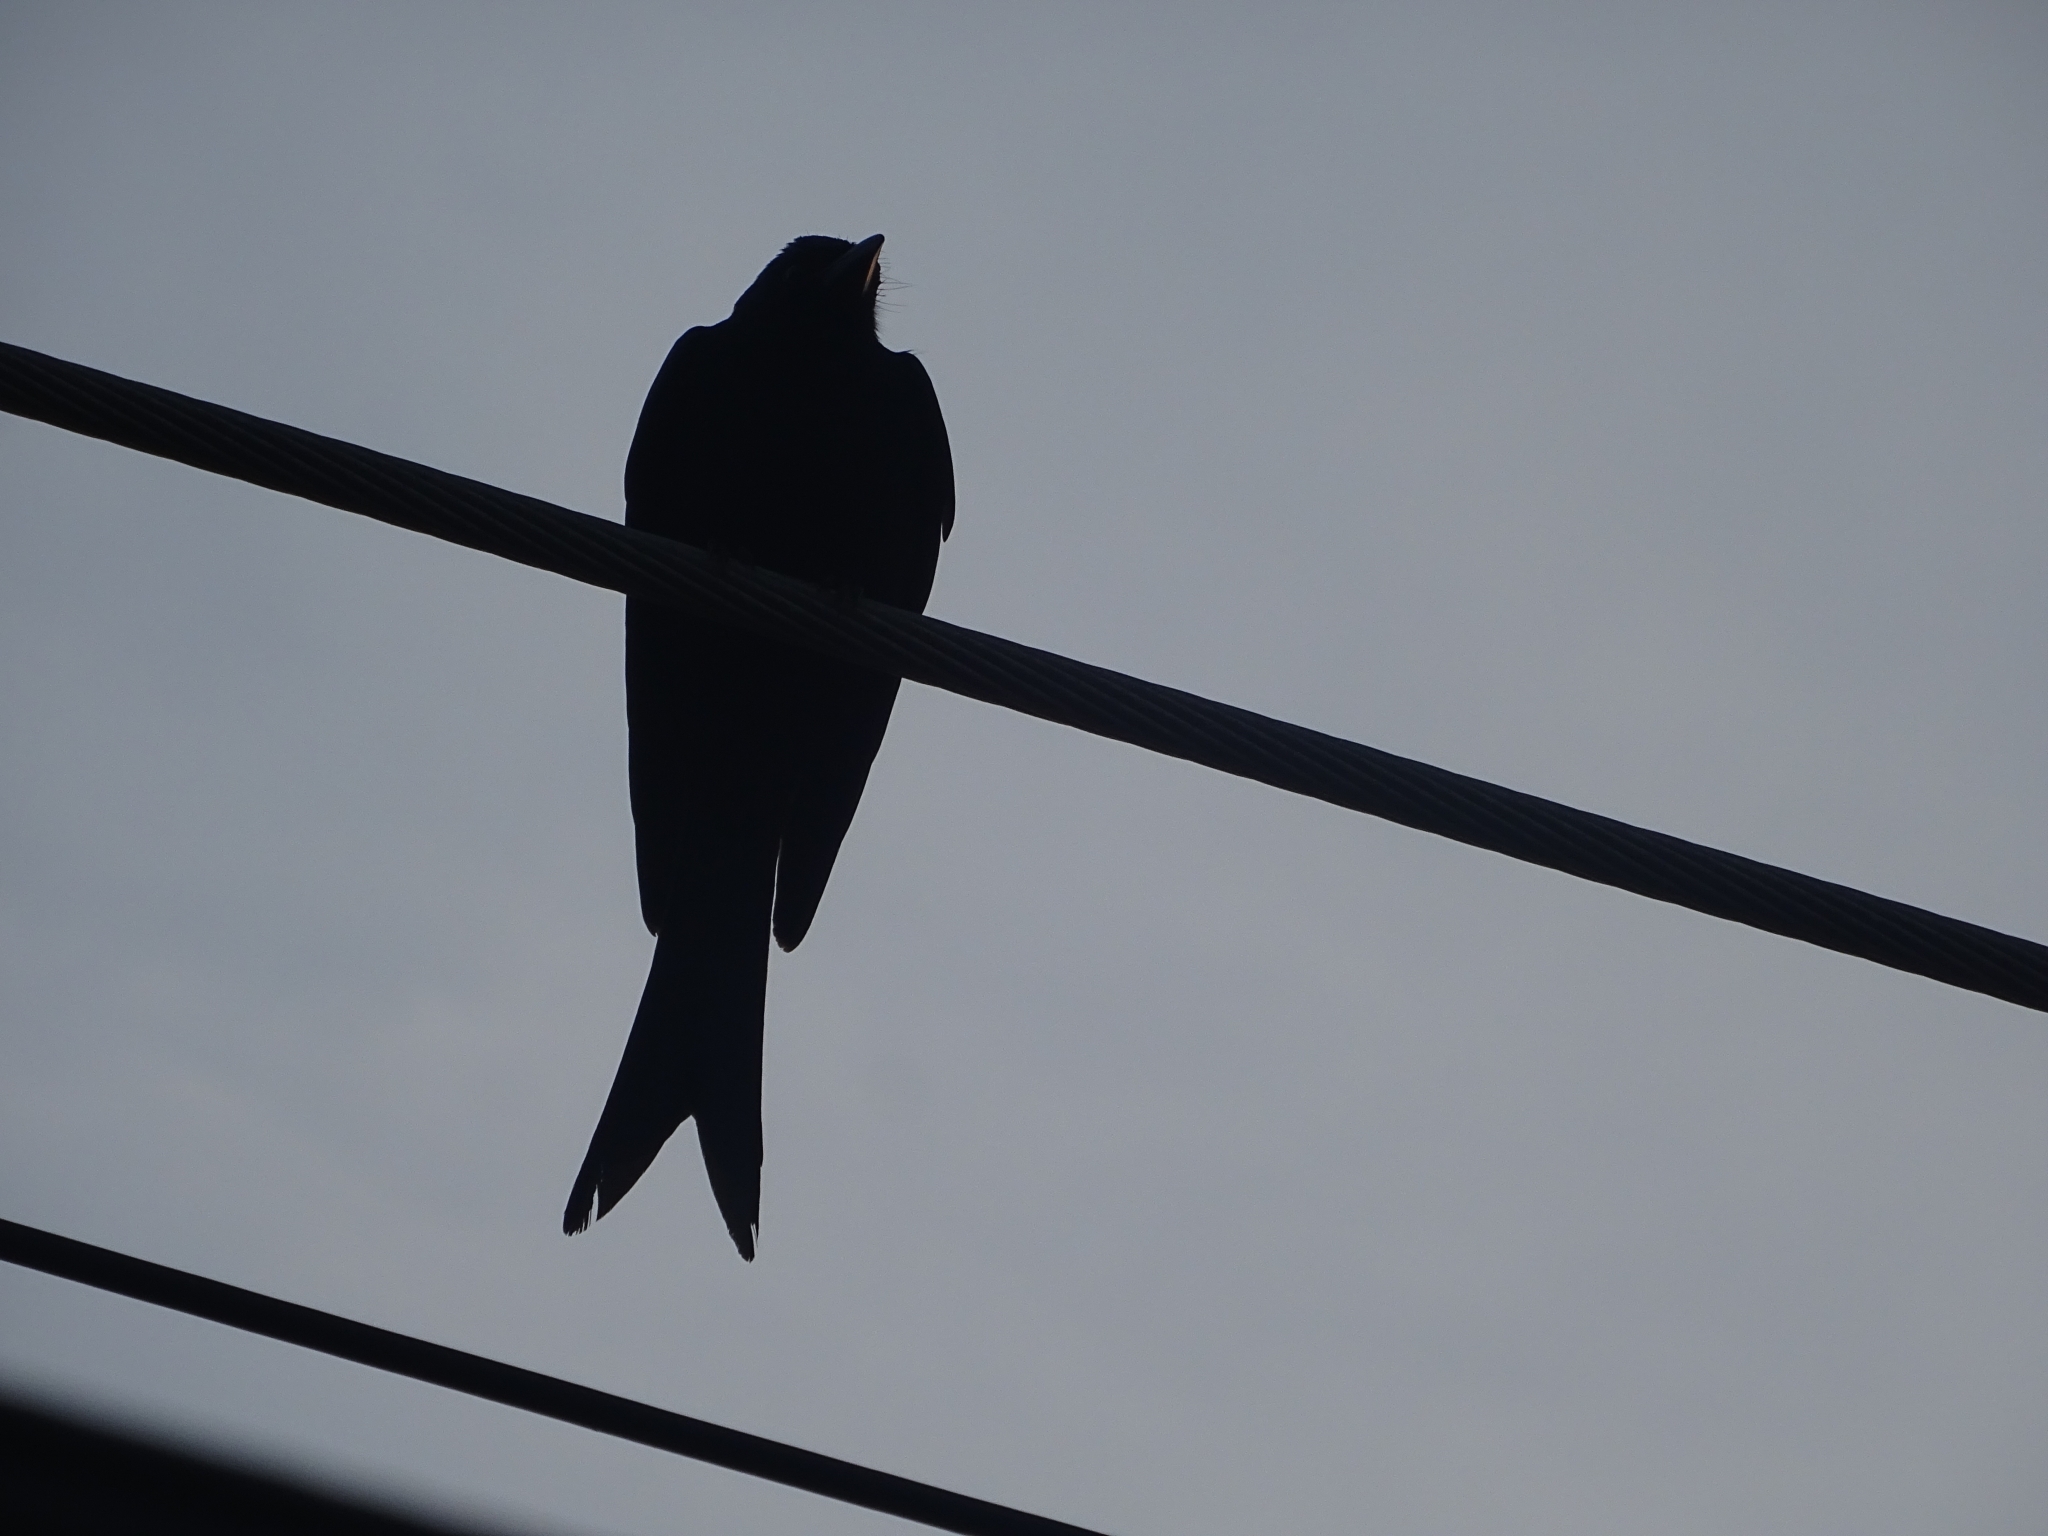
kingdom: Animalia
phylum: Chordata
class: Aves
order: Passeriformes
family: Dicruridae
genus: Dicrurus
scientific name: Dicrurus macrocercus
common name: Black drongo
